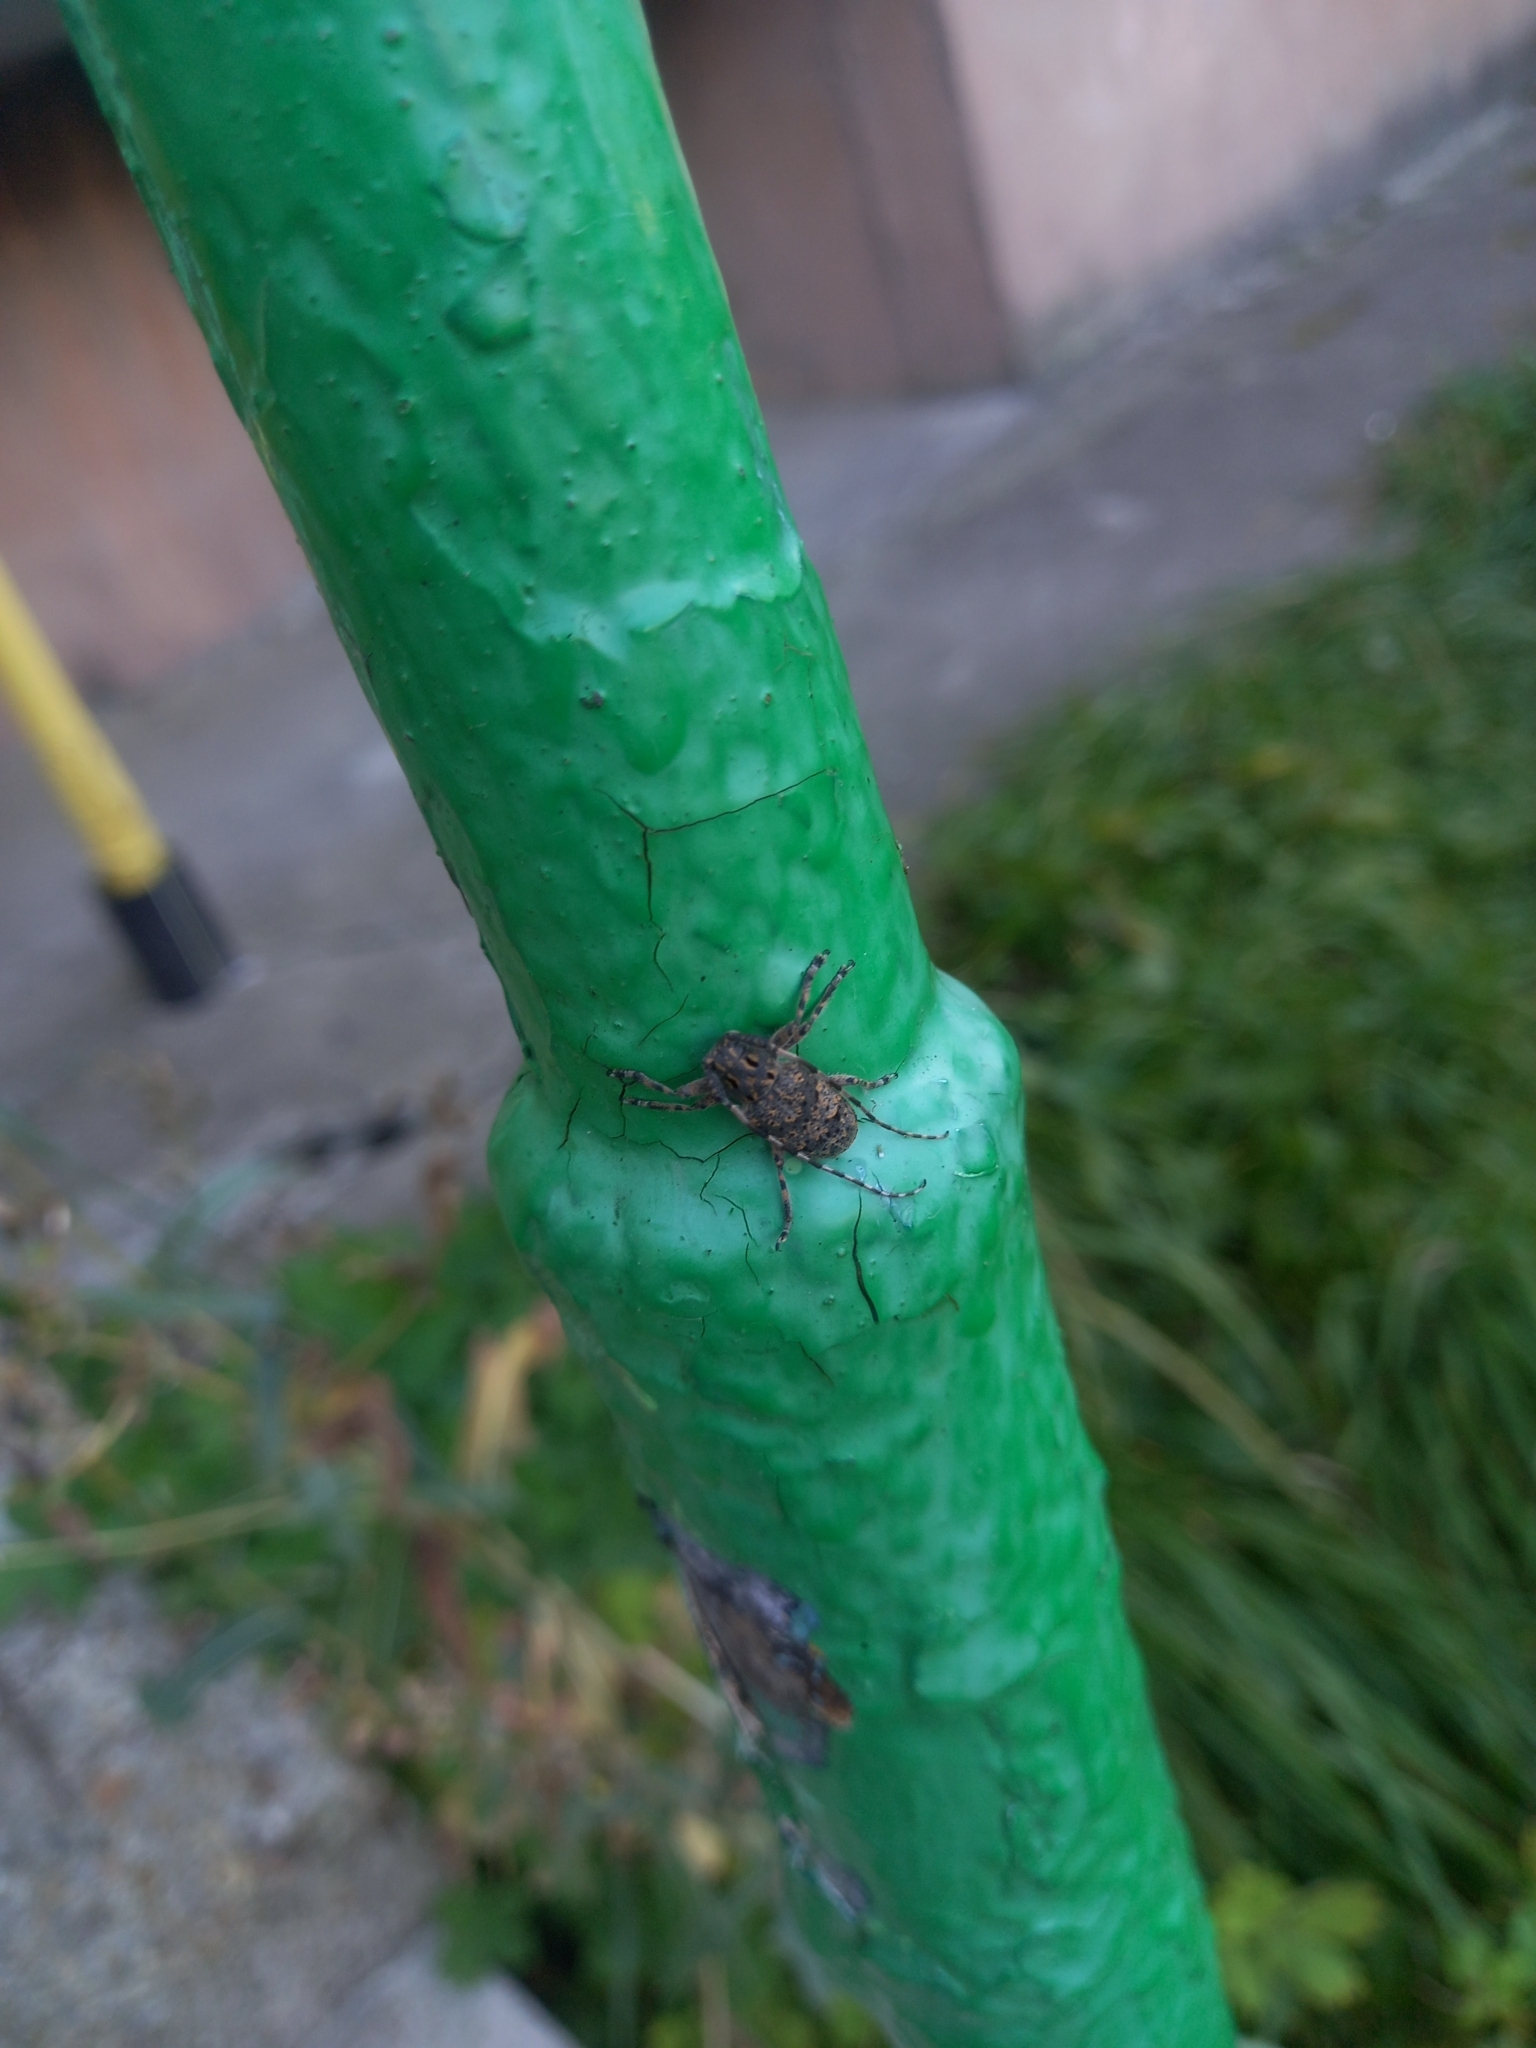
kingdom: Animalia
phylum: Arthropoda
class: Insecta
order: Coleoptera
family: Cerambycidae
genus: Mesosa
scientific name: Mesosa myops
